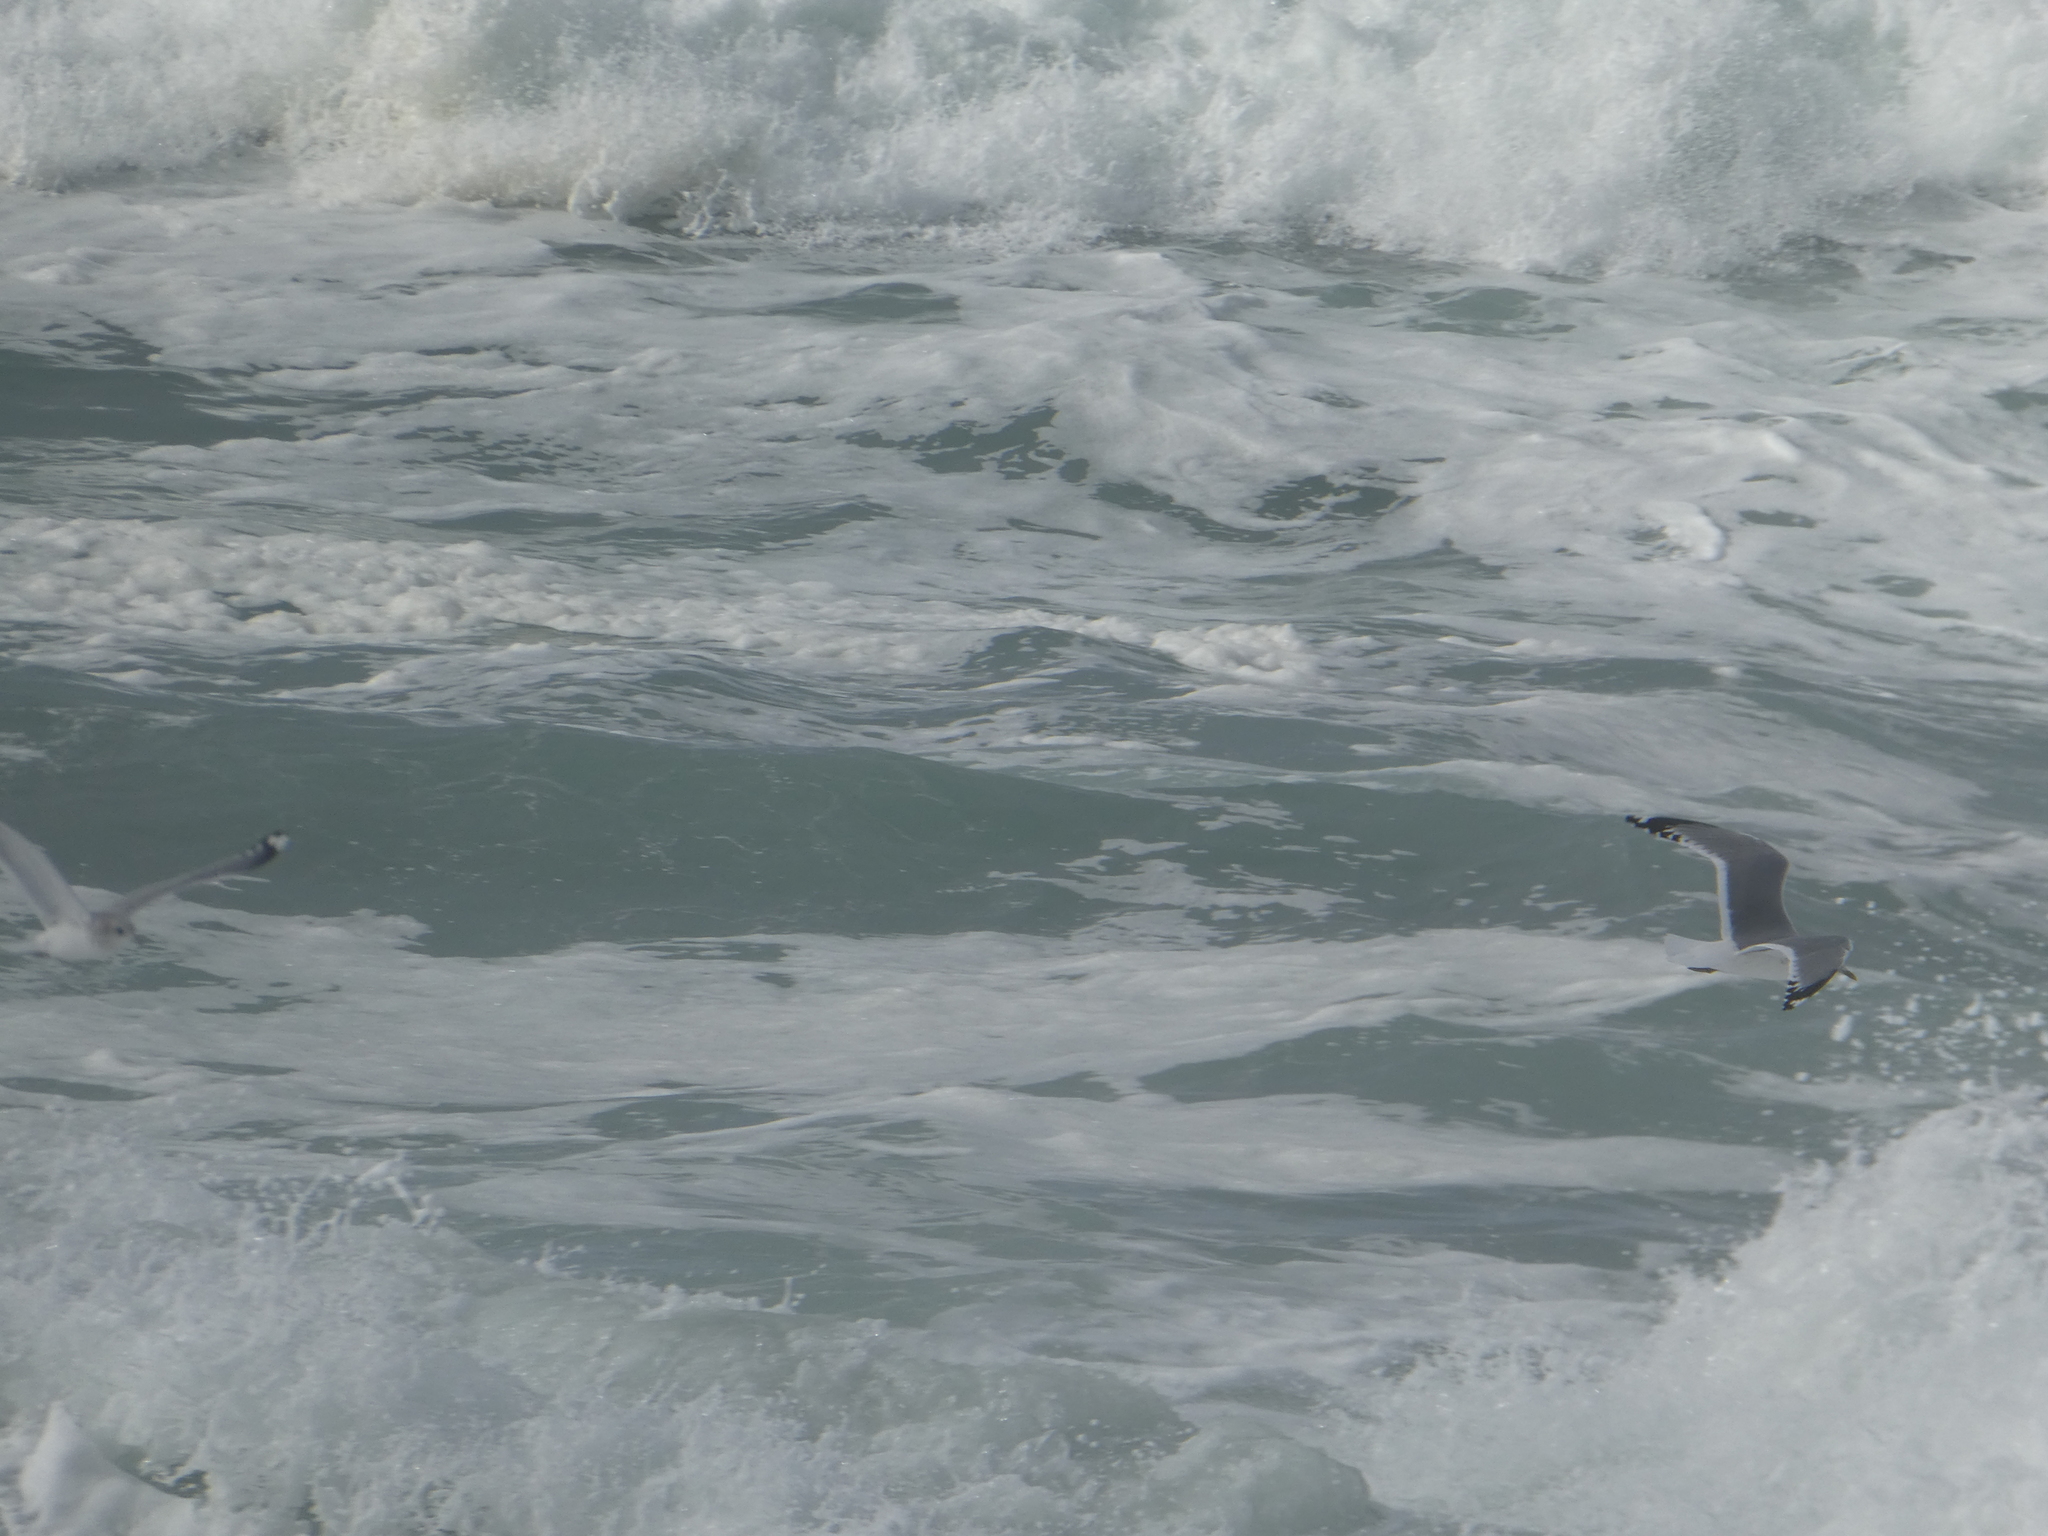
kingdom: Animalia
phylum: Chordata
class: Aves
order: Charadriiformes
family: Laridae
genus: Larus
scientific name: Larus brachyrhynchus
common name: Short-billed gull
